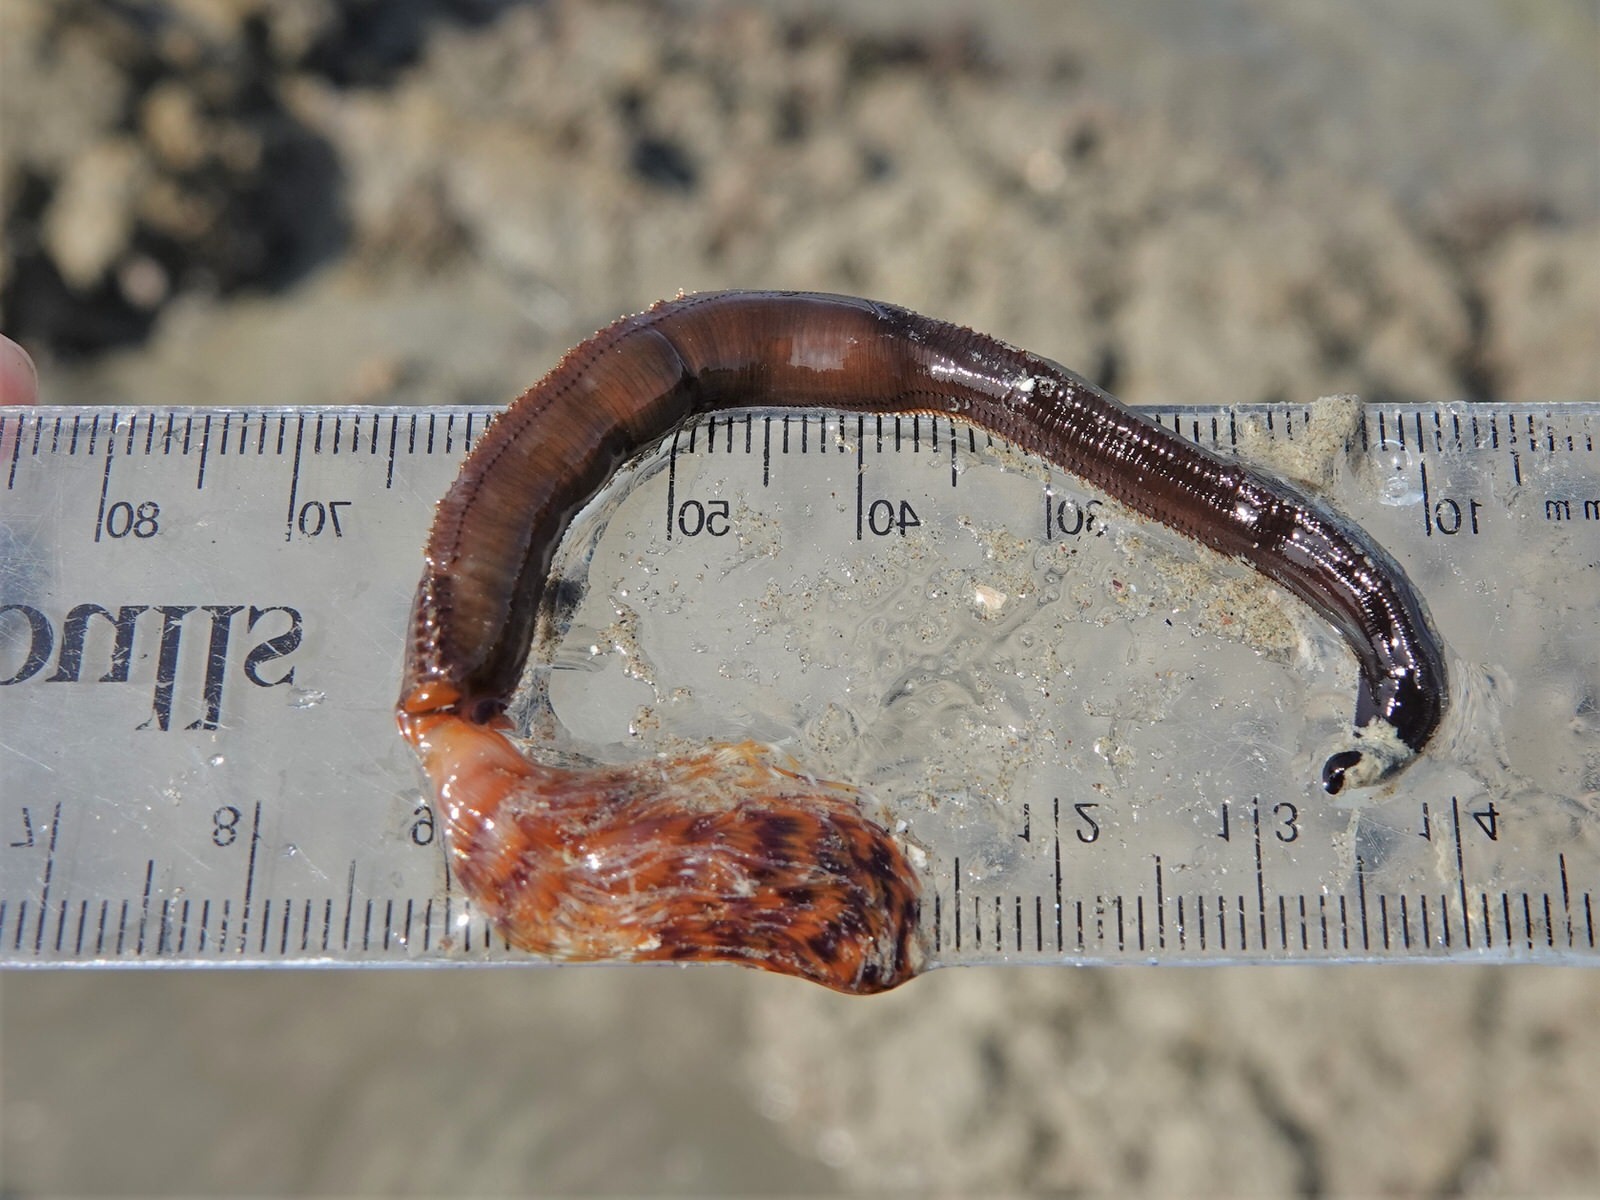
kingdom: Animalia
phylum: Annelida
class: Polychaeta
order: Sabellida
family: Sabellidae
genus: Sabella
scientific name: Sabella spallanzanii
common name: Feather duster worm
